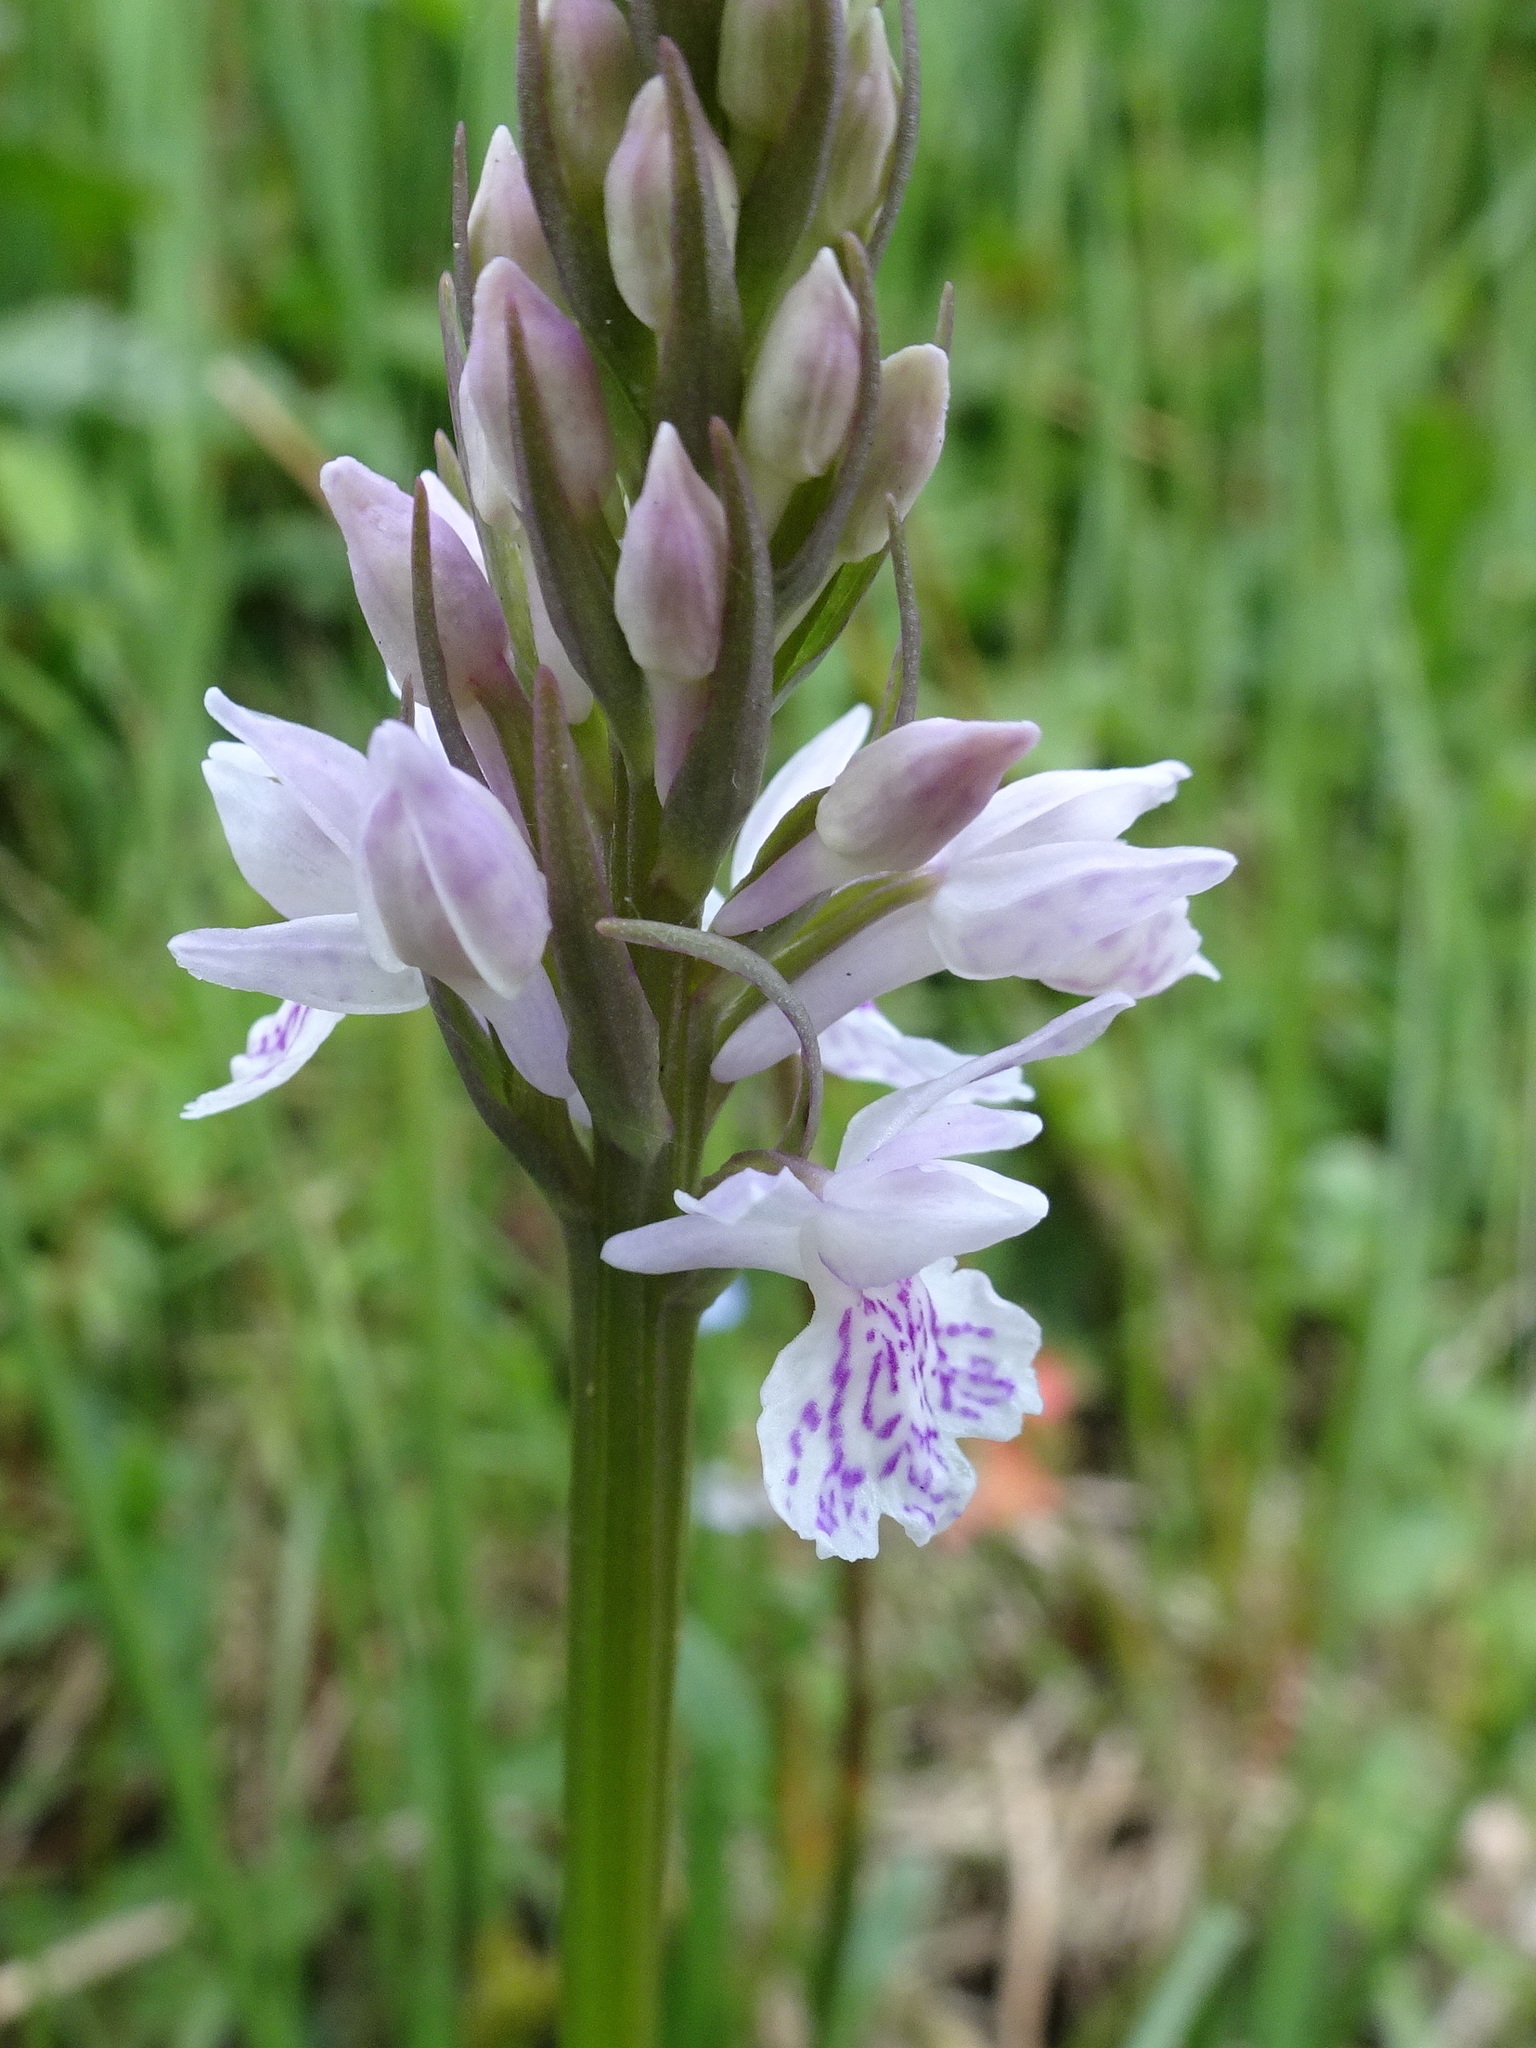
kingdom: Plantae
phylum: Tracheophyta
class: Liliopsida
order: Asparagales
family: Orchidaceae
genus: Dactylorhiza
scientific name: Dactylorhiza maculata
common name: Heath spotted-orchid
